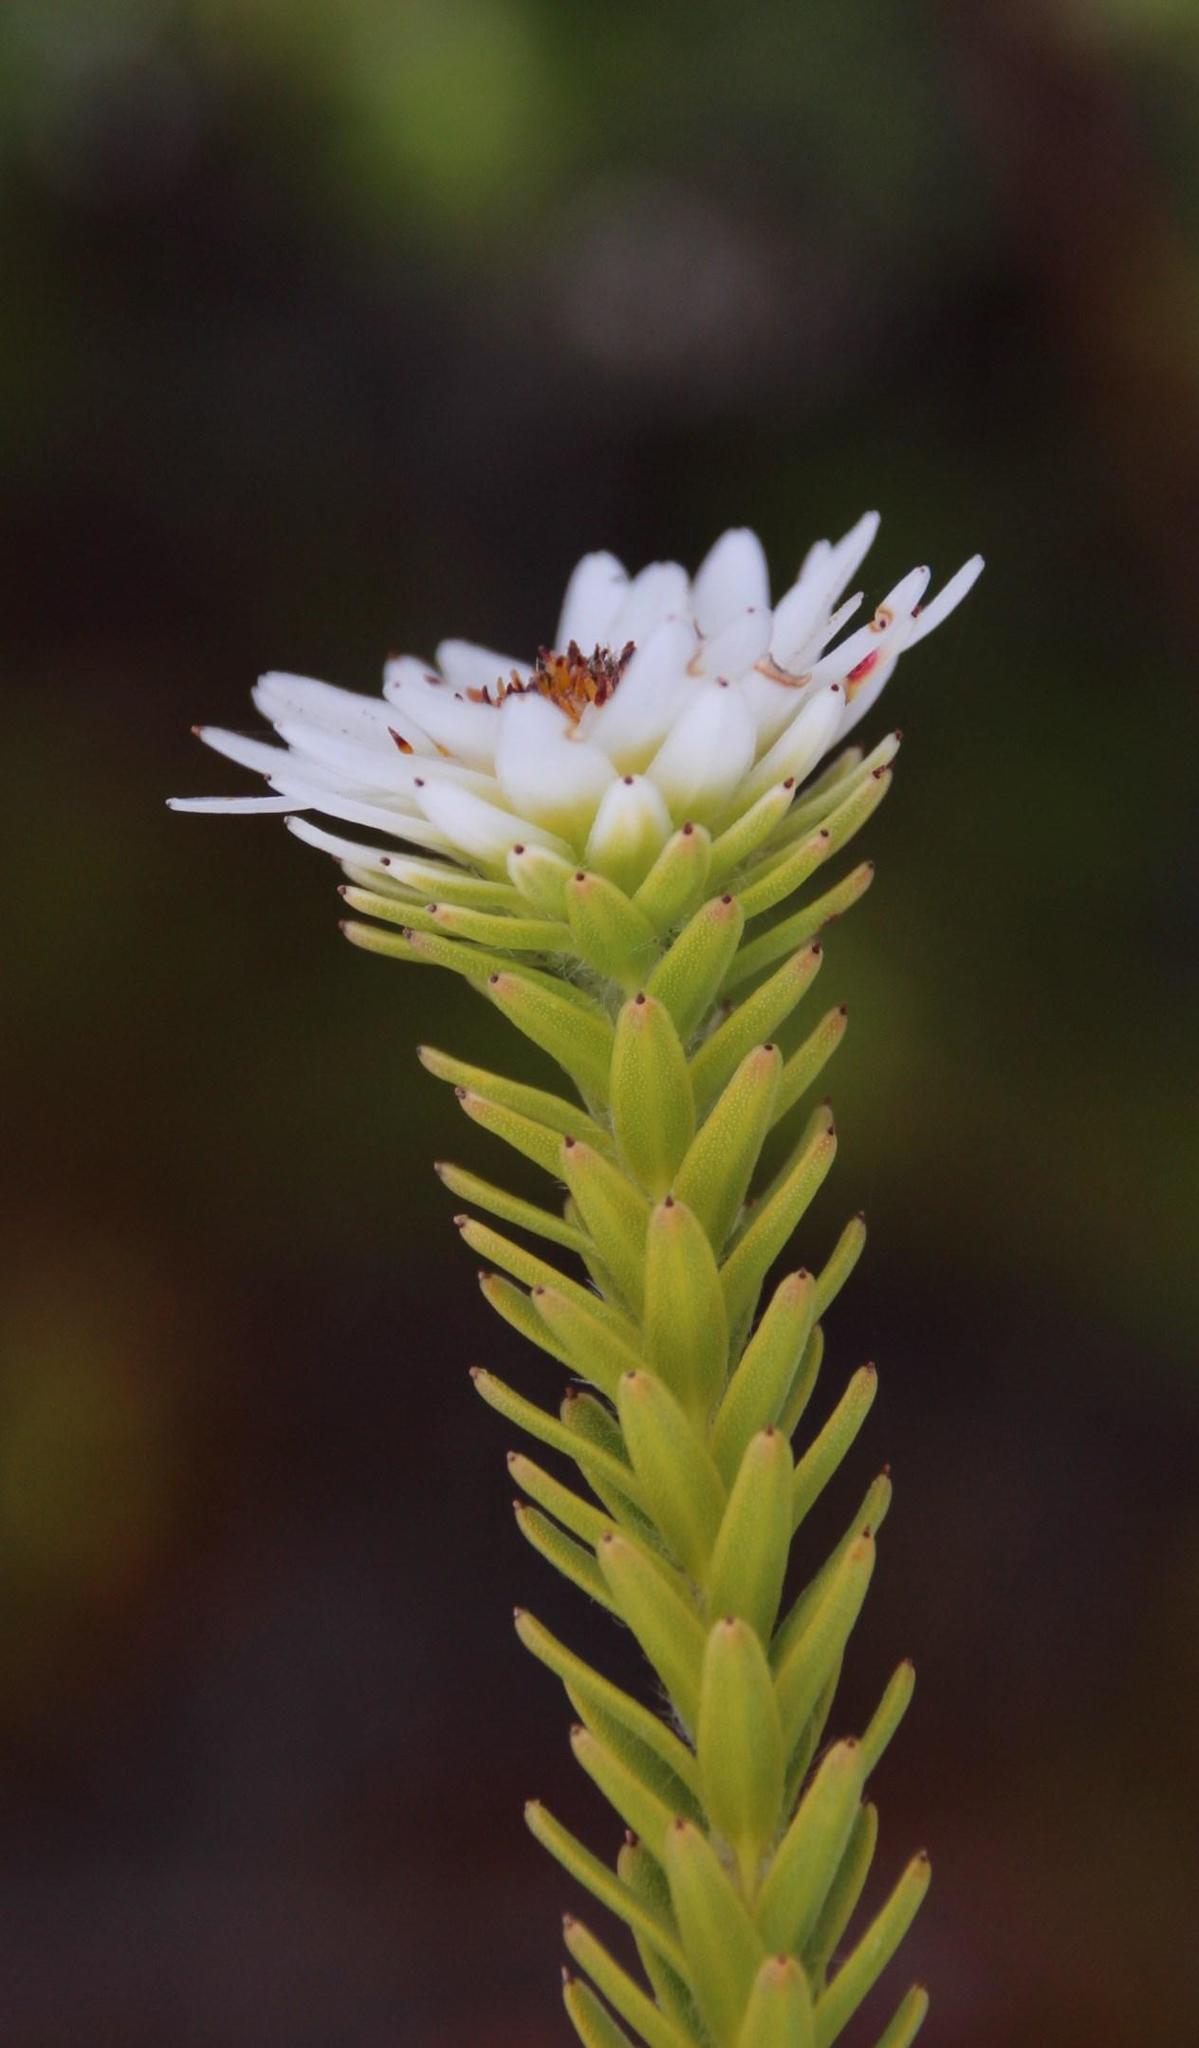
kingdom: Plantae
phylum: Tracheophyta
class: Magnoliopsida
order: Bruniales
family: Bruniaceae
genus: Staavia
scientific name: Staavia dodii
